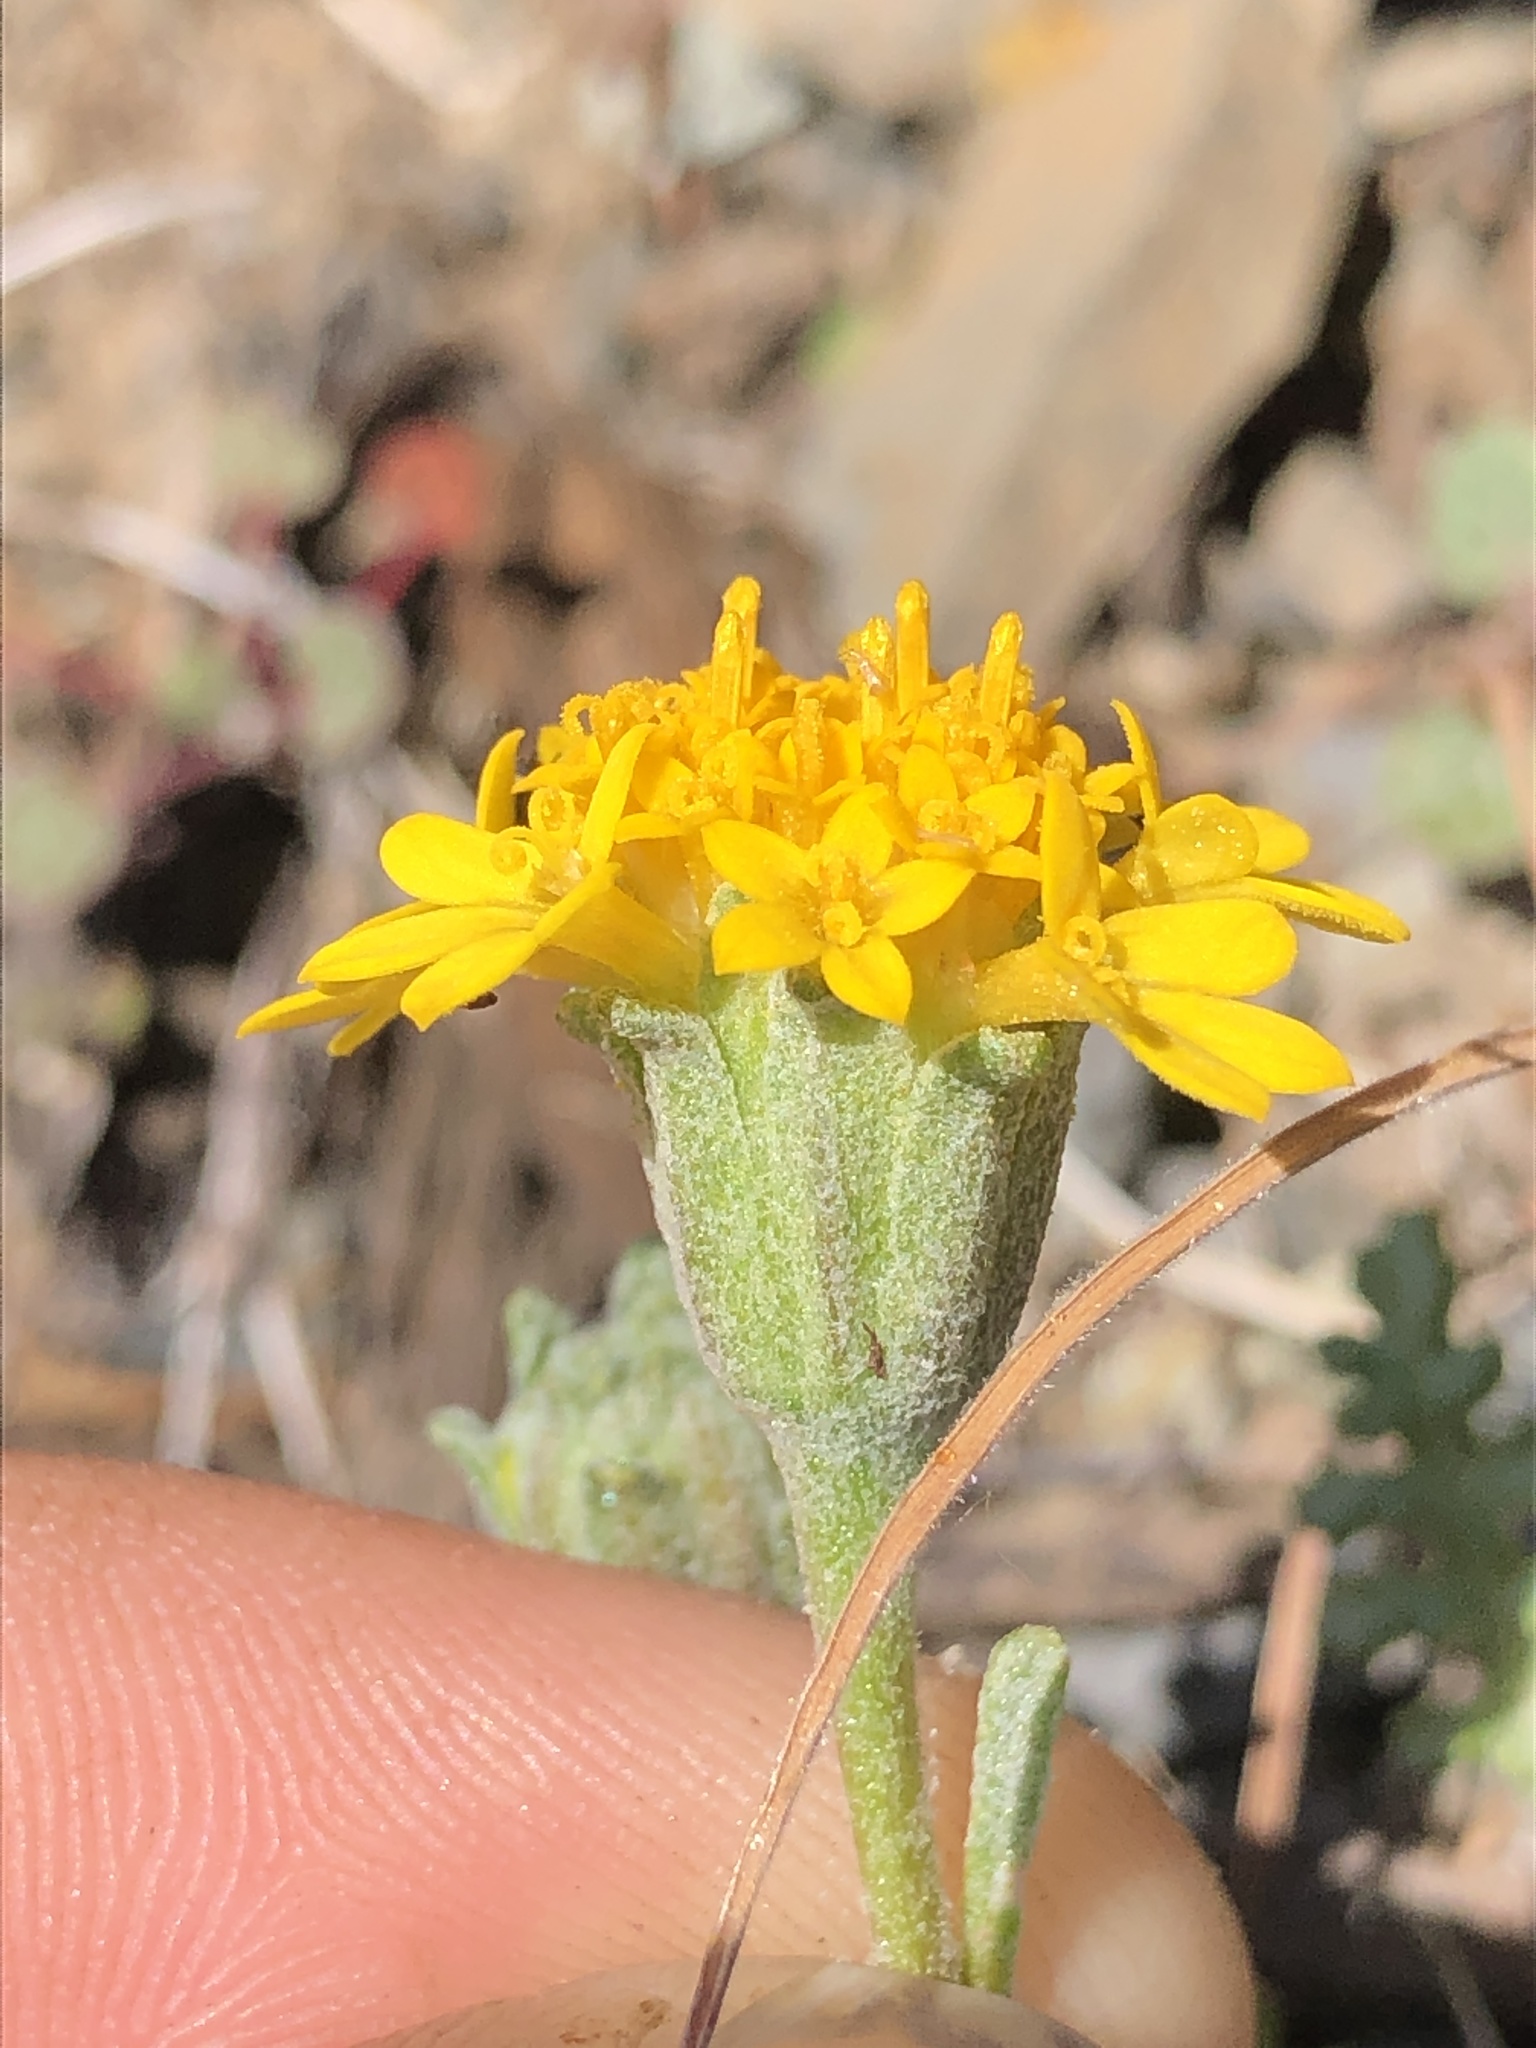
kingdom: Plantae
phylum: Tracheophyta
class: Magnoliopsida
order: Asterales
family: Asteraceae
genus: Chaenactis
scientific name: Chaenactis glabriuscula
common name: Yellow pincushion
